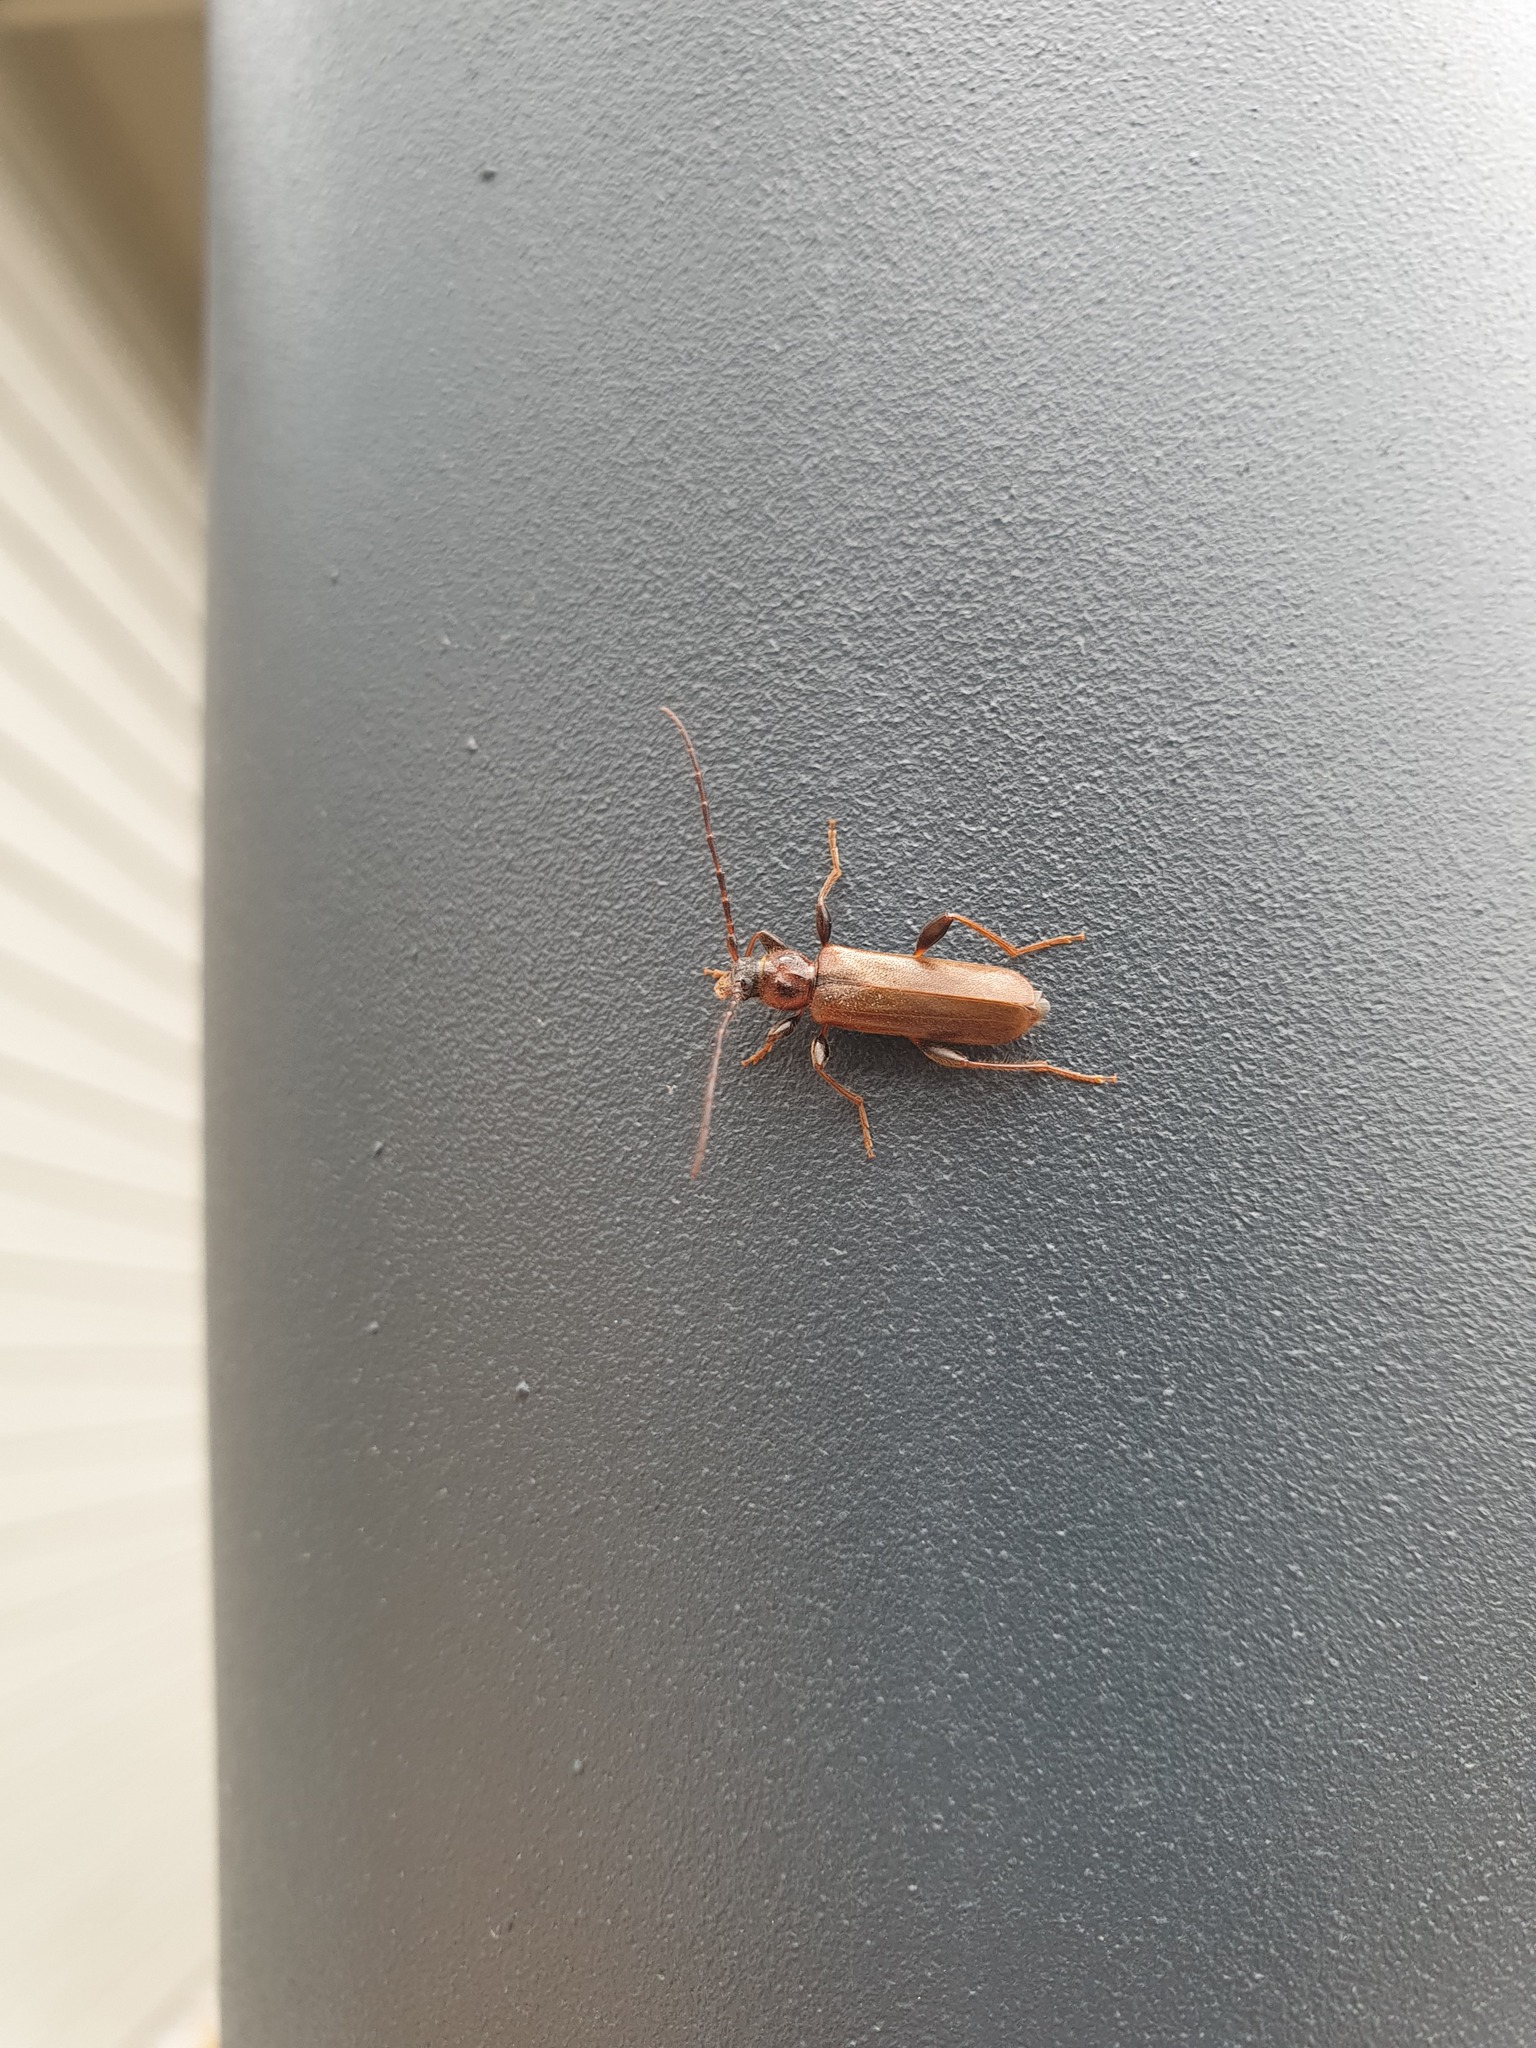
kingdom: Animalia
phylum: Arthropoda
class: Insecta
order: Coleoptera
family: Cerambycidae
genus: Phymatodes
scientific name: Phymatodes testaceus
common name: Long-horned beetle
